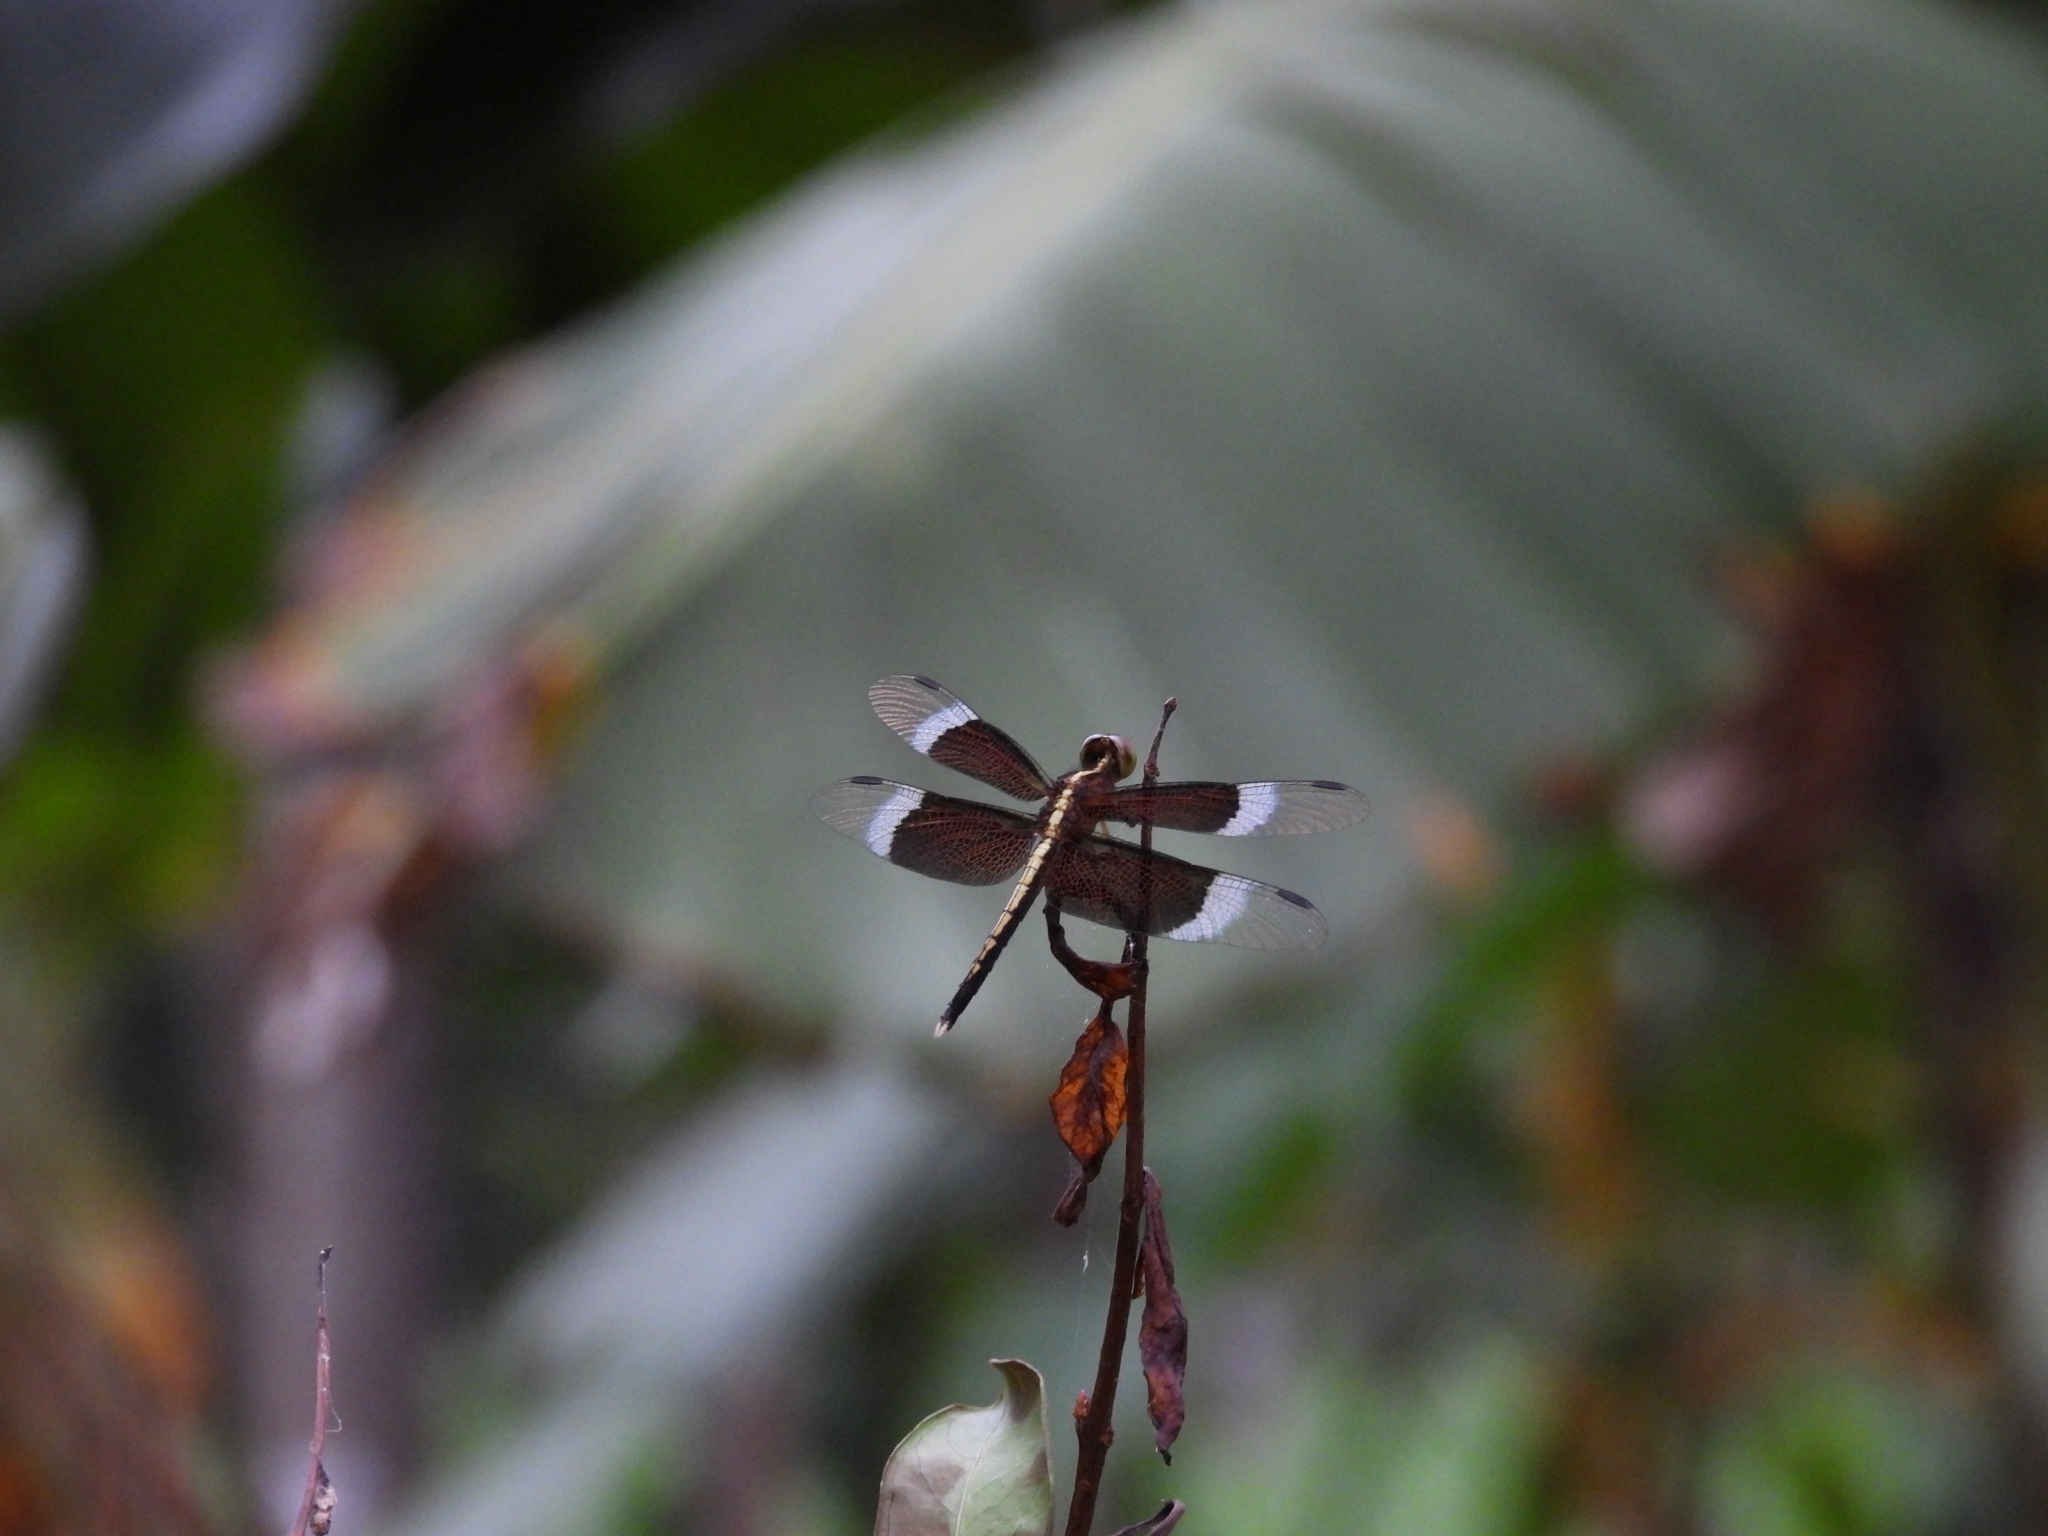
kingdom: Animalia
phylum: Arthropoda
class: Insecta
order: Odonata
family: Libellulidae
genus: Neurothemis
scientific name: Neurothemis tullia
